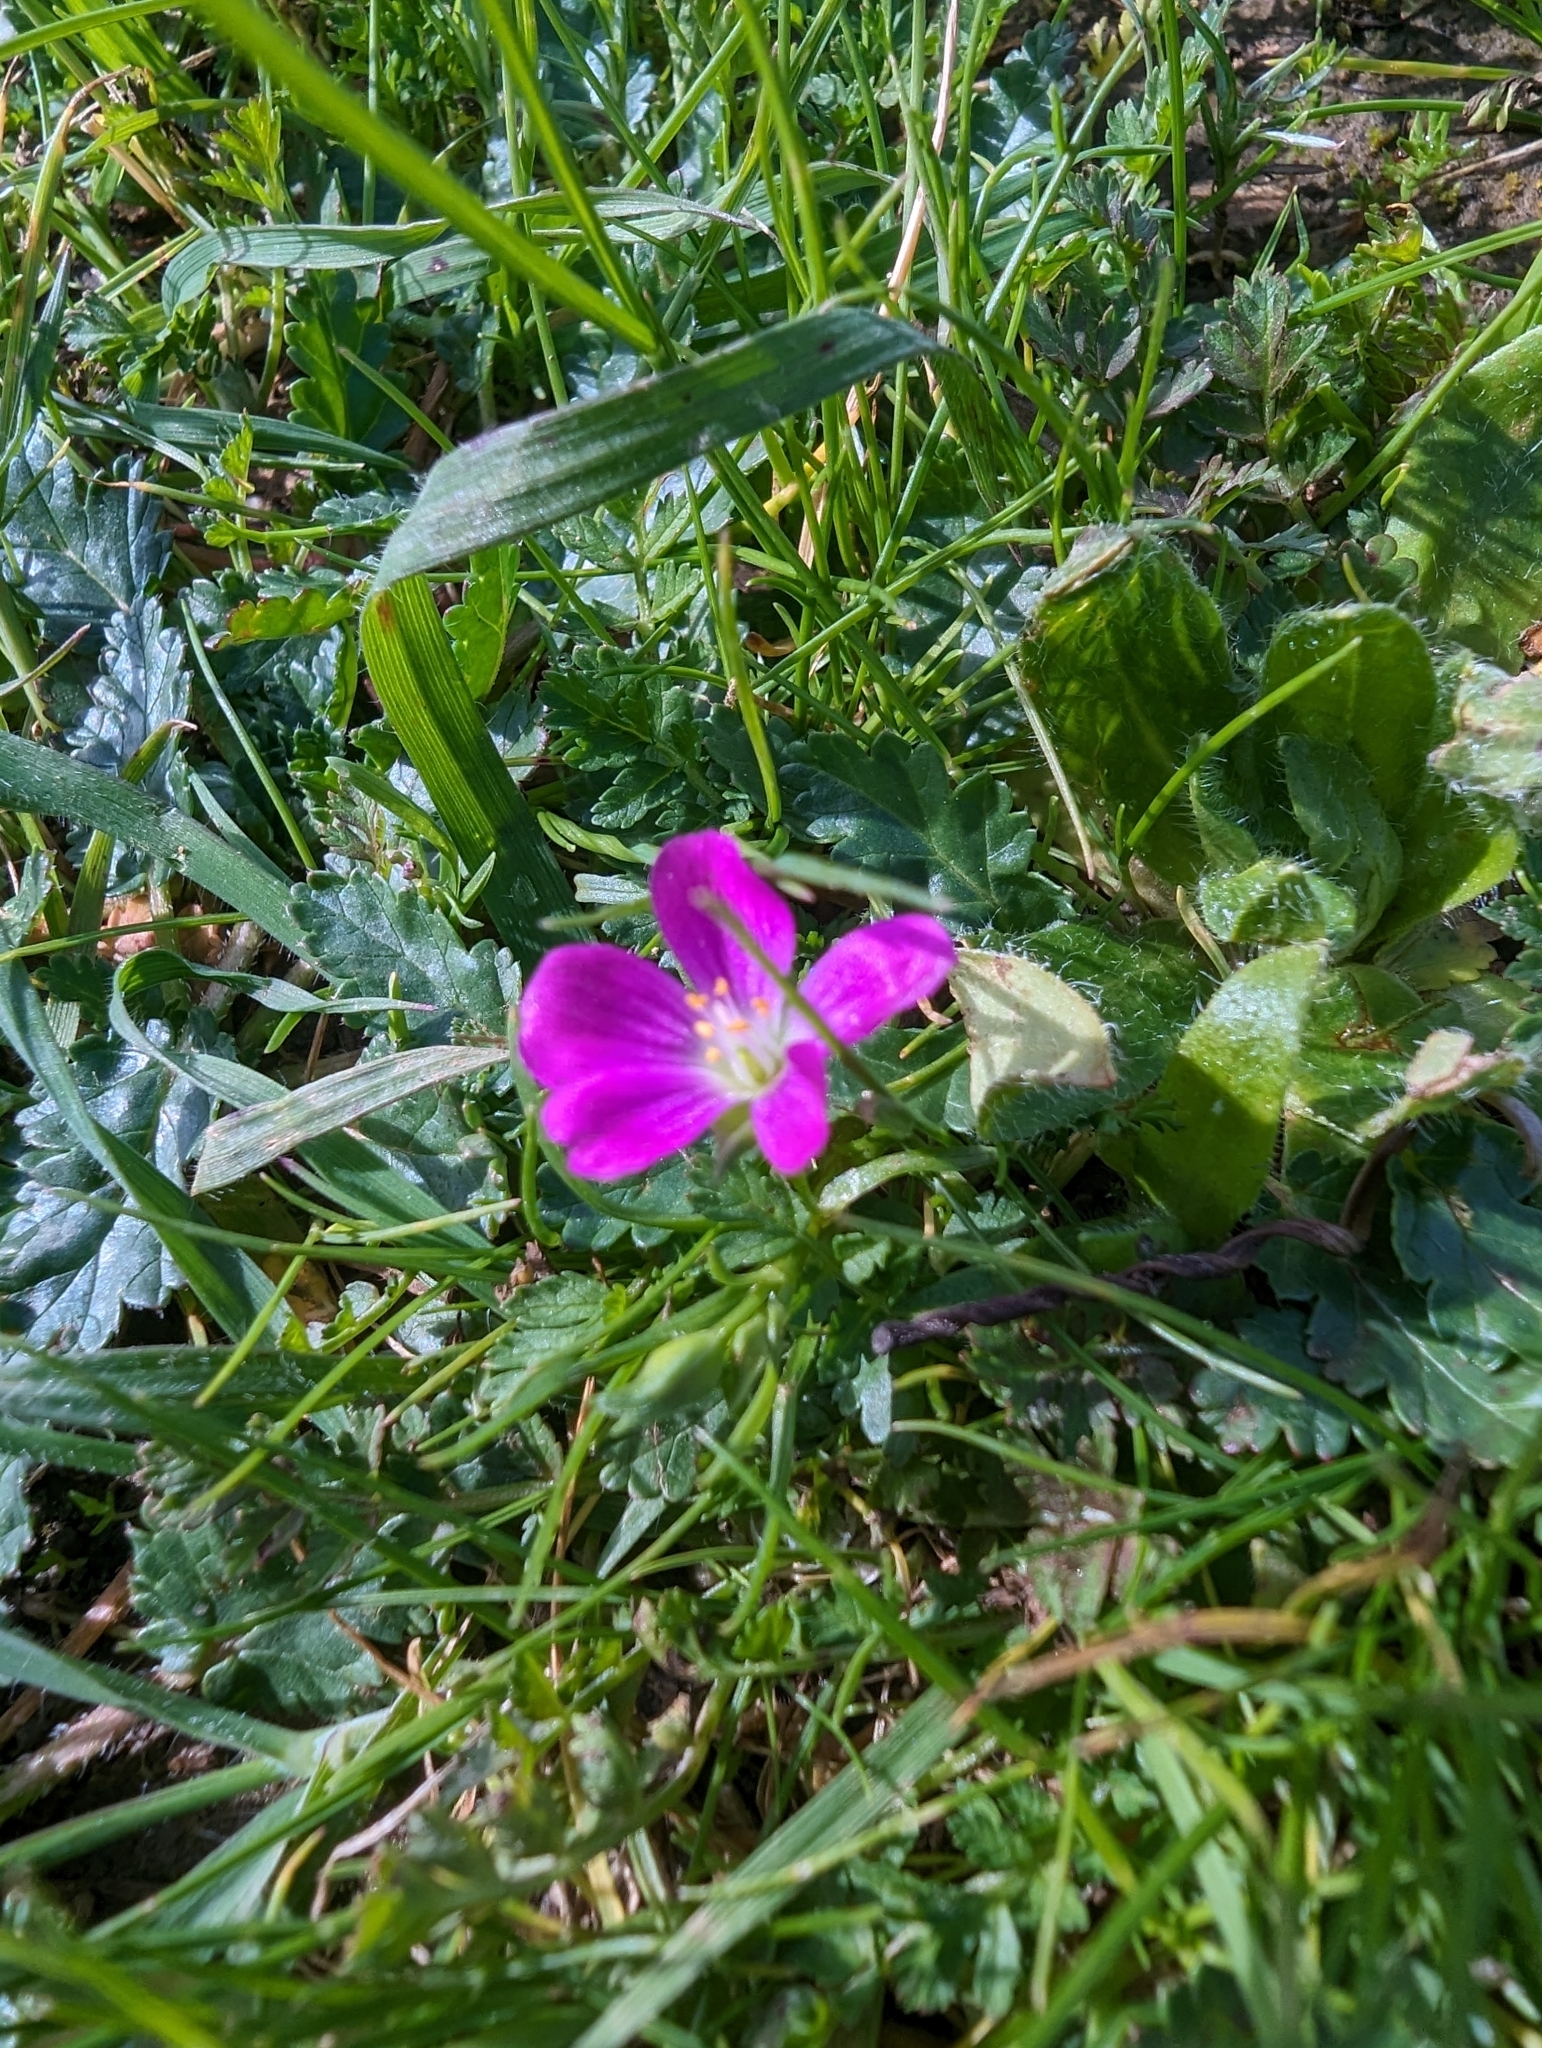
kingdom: Plantae
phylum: Tracheophyta
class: Magnoliopsida
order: Caryophyllales
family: Montiaceae
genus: Calandrinia
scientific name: Calandrinia menziesii
